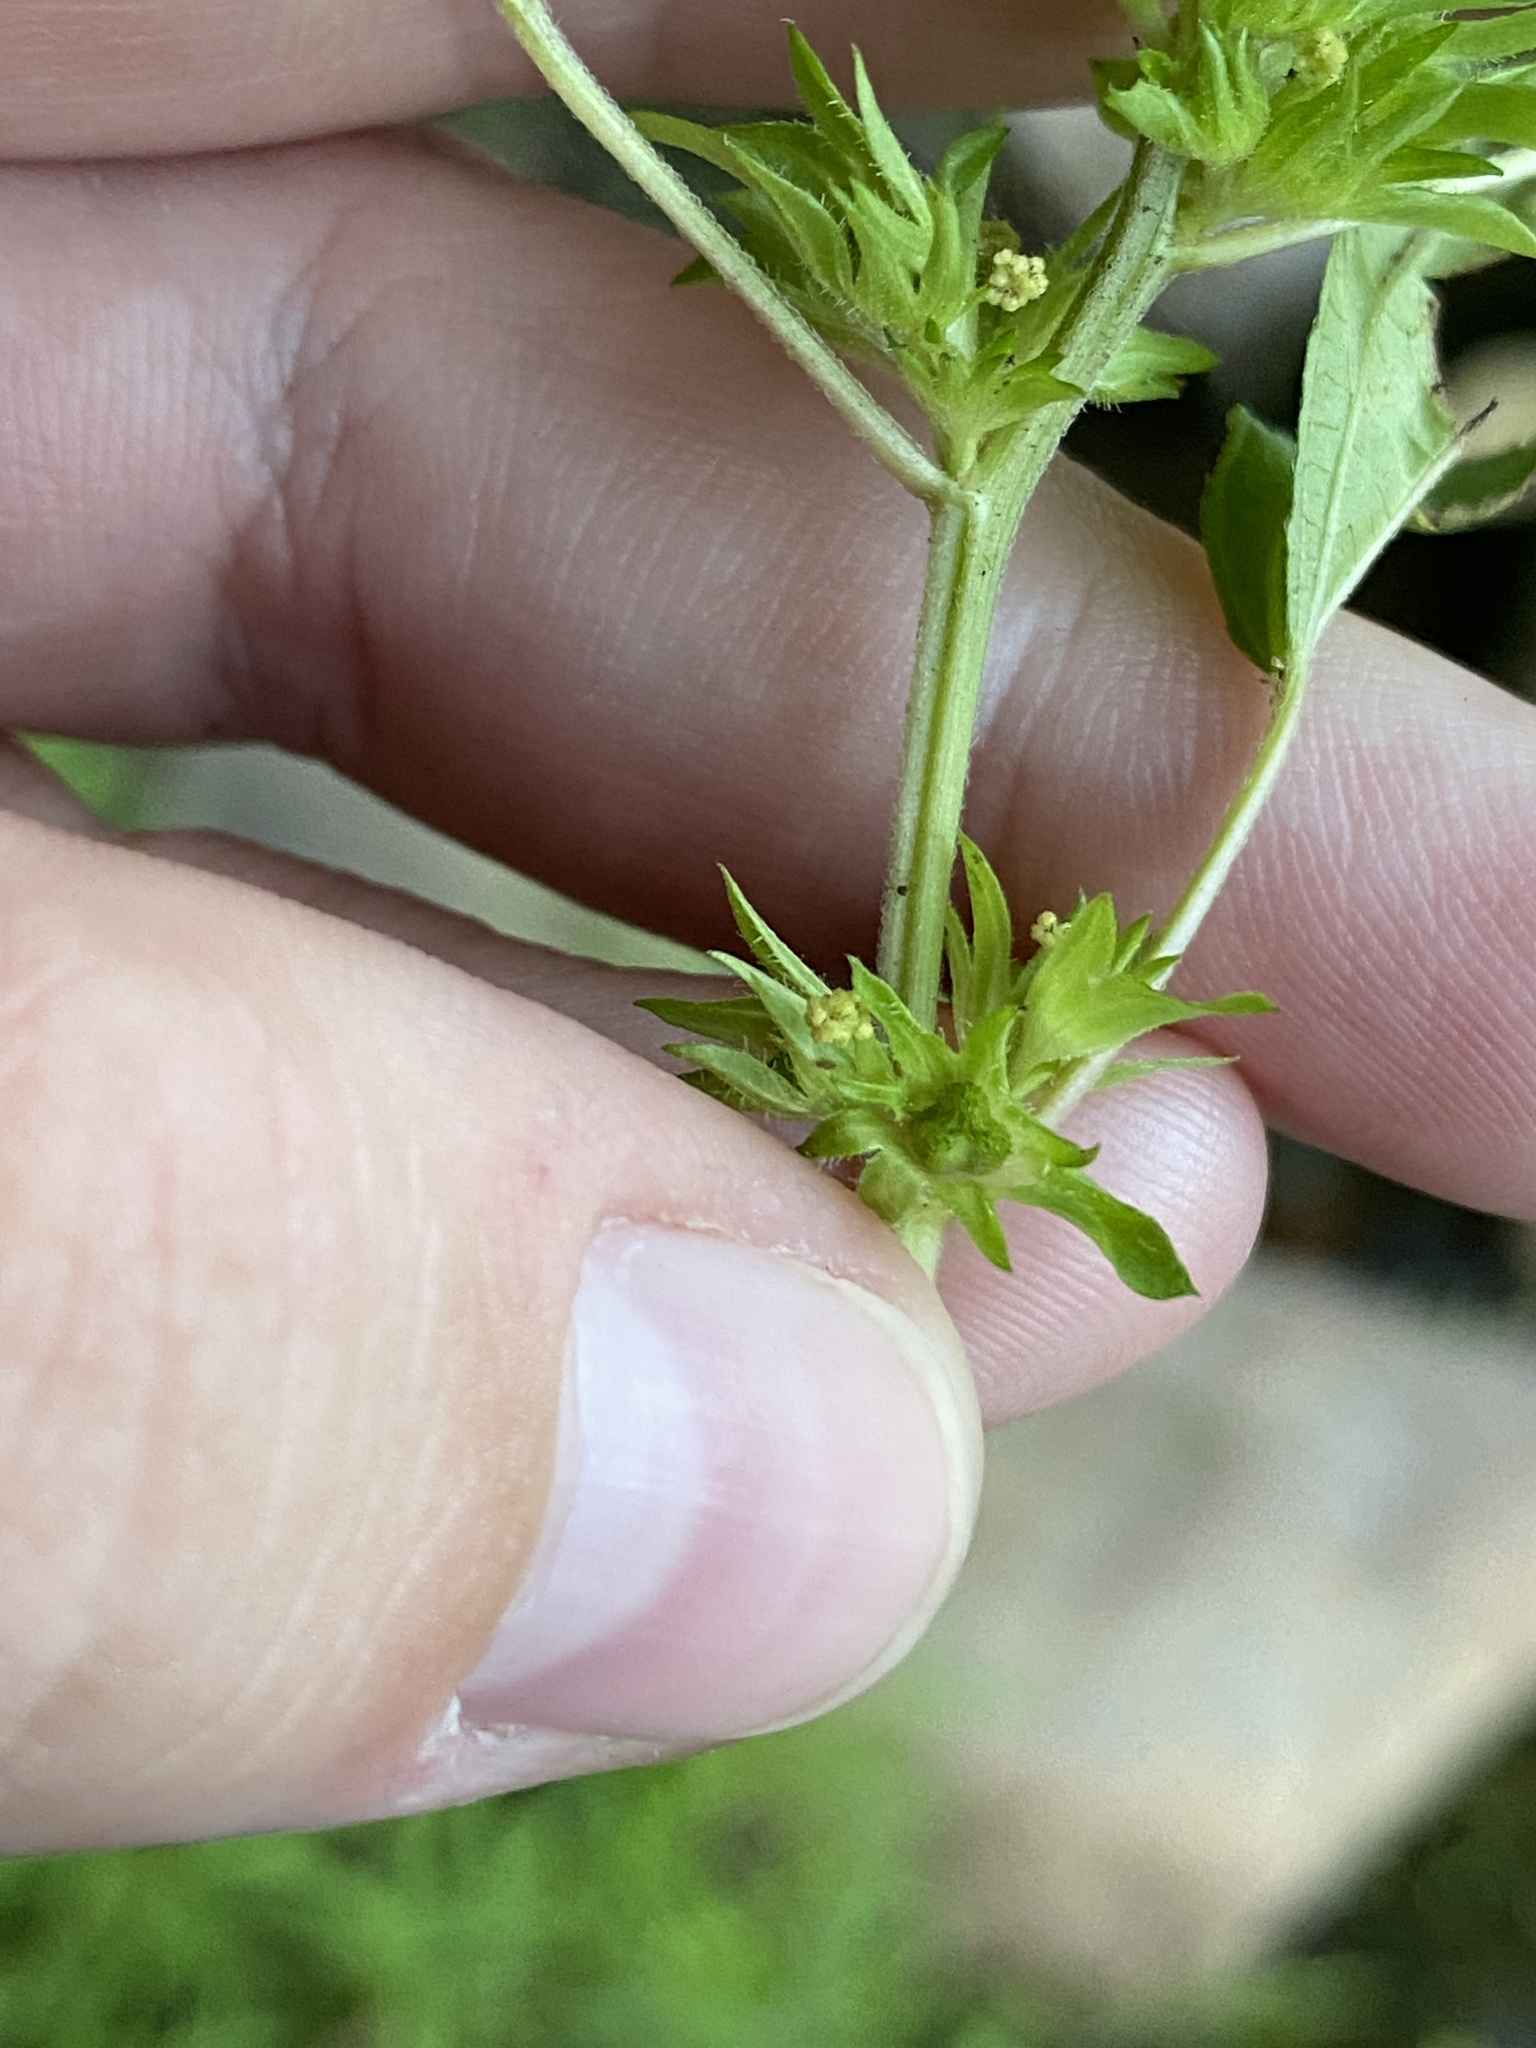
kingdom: Plantae
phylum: Tracheophyta
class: Magnoliopsida
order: Malpighiales
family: Euphorbiaceae
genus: Acalypha
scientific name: Acalypha rhomboidea
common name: Rhombic copperleaf
